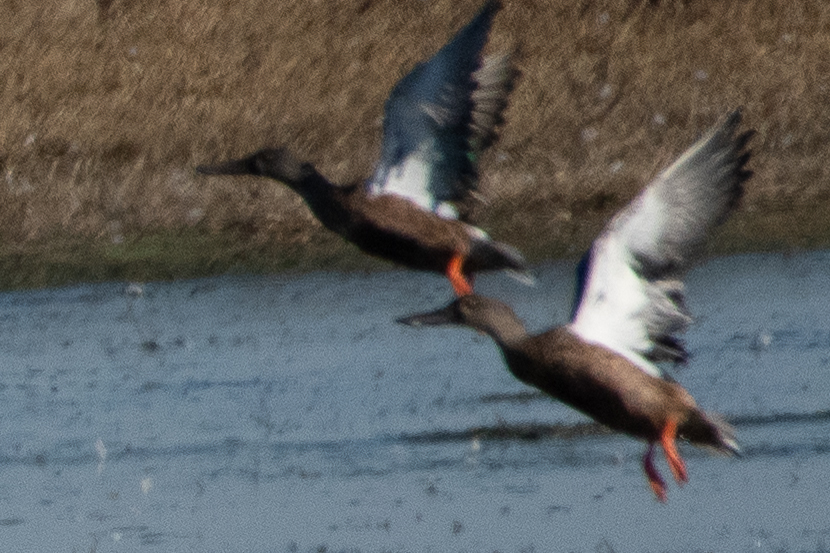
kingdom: Animalia
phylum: Chordata
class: Aves
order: Anseriformes
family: Anatidae
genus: Spatula
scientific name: Spatula clypeata
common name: Northern shoveler
